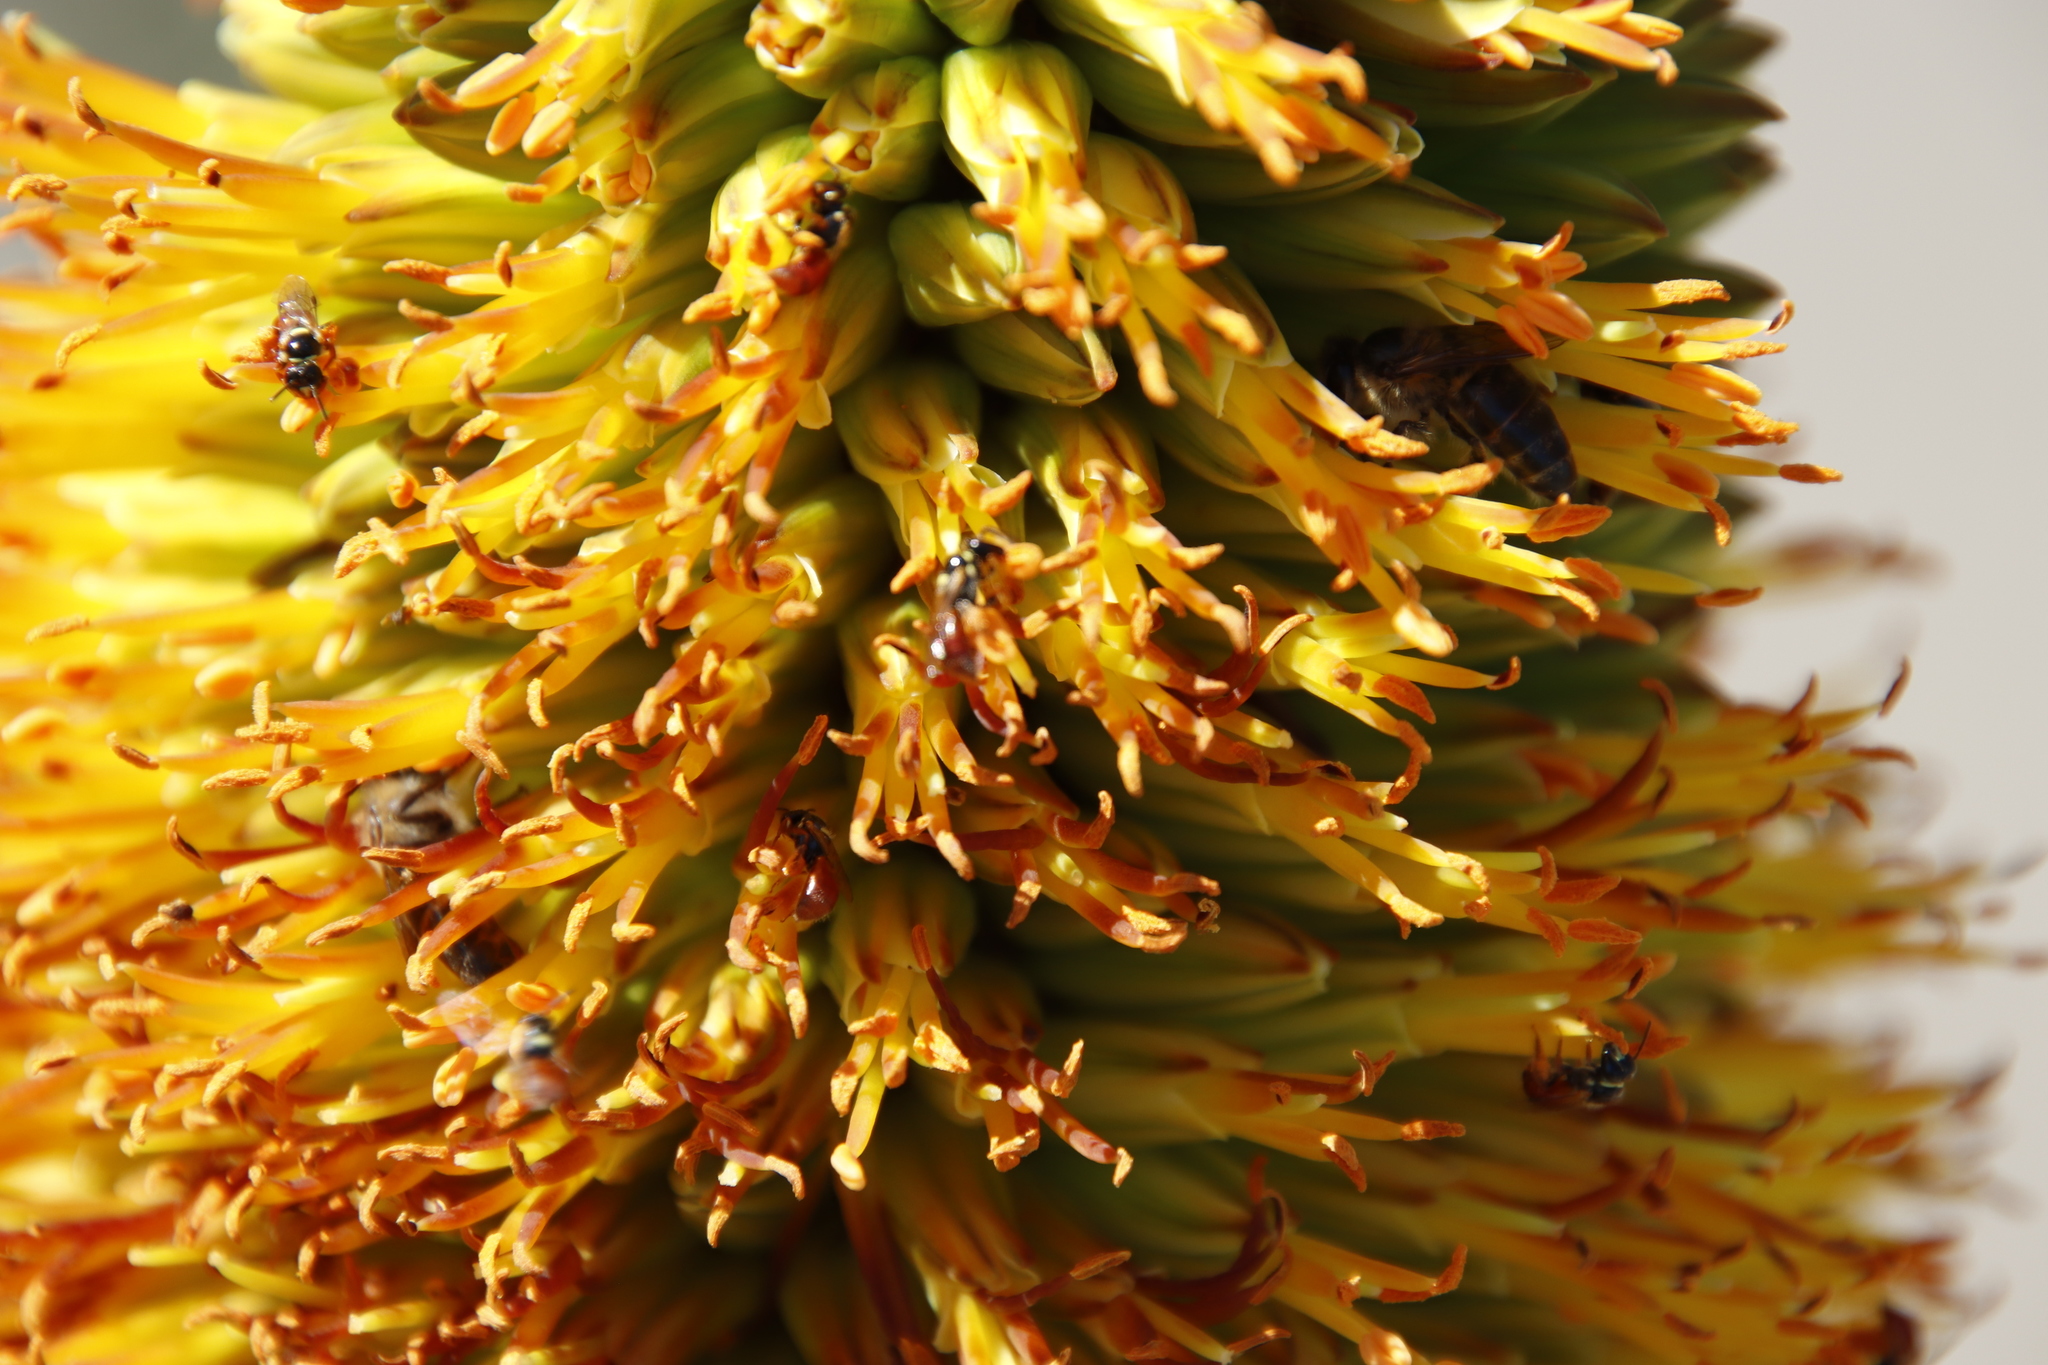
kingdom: Plantae
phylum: Tracheophyta
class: Liliopsida
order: Asparagales
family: Asphodelaceae
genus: Aloe
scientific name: Aloe broomii
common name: Berg alwyn
